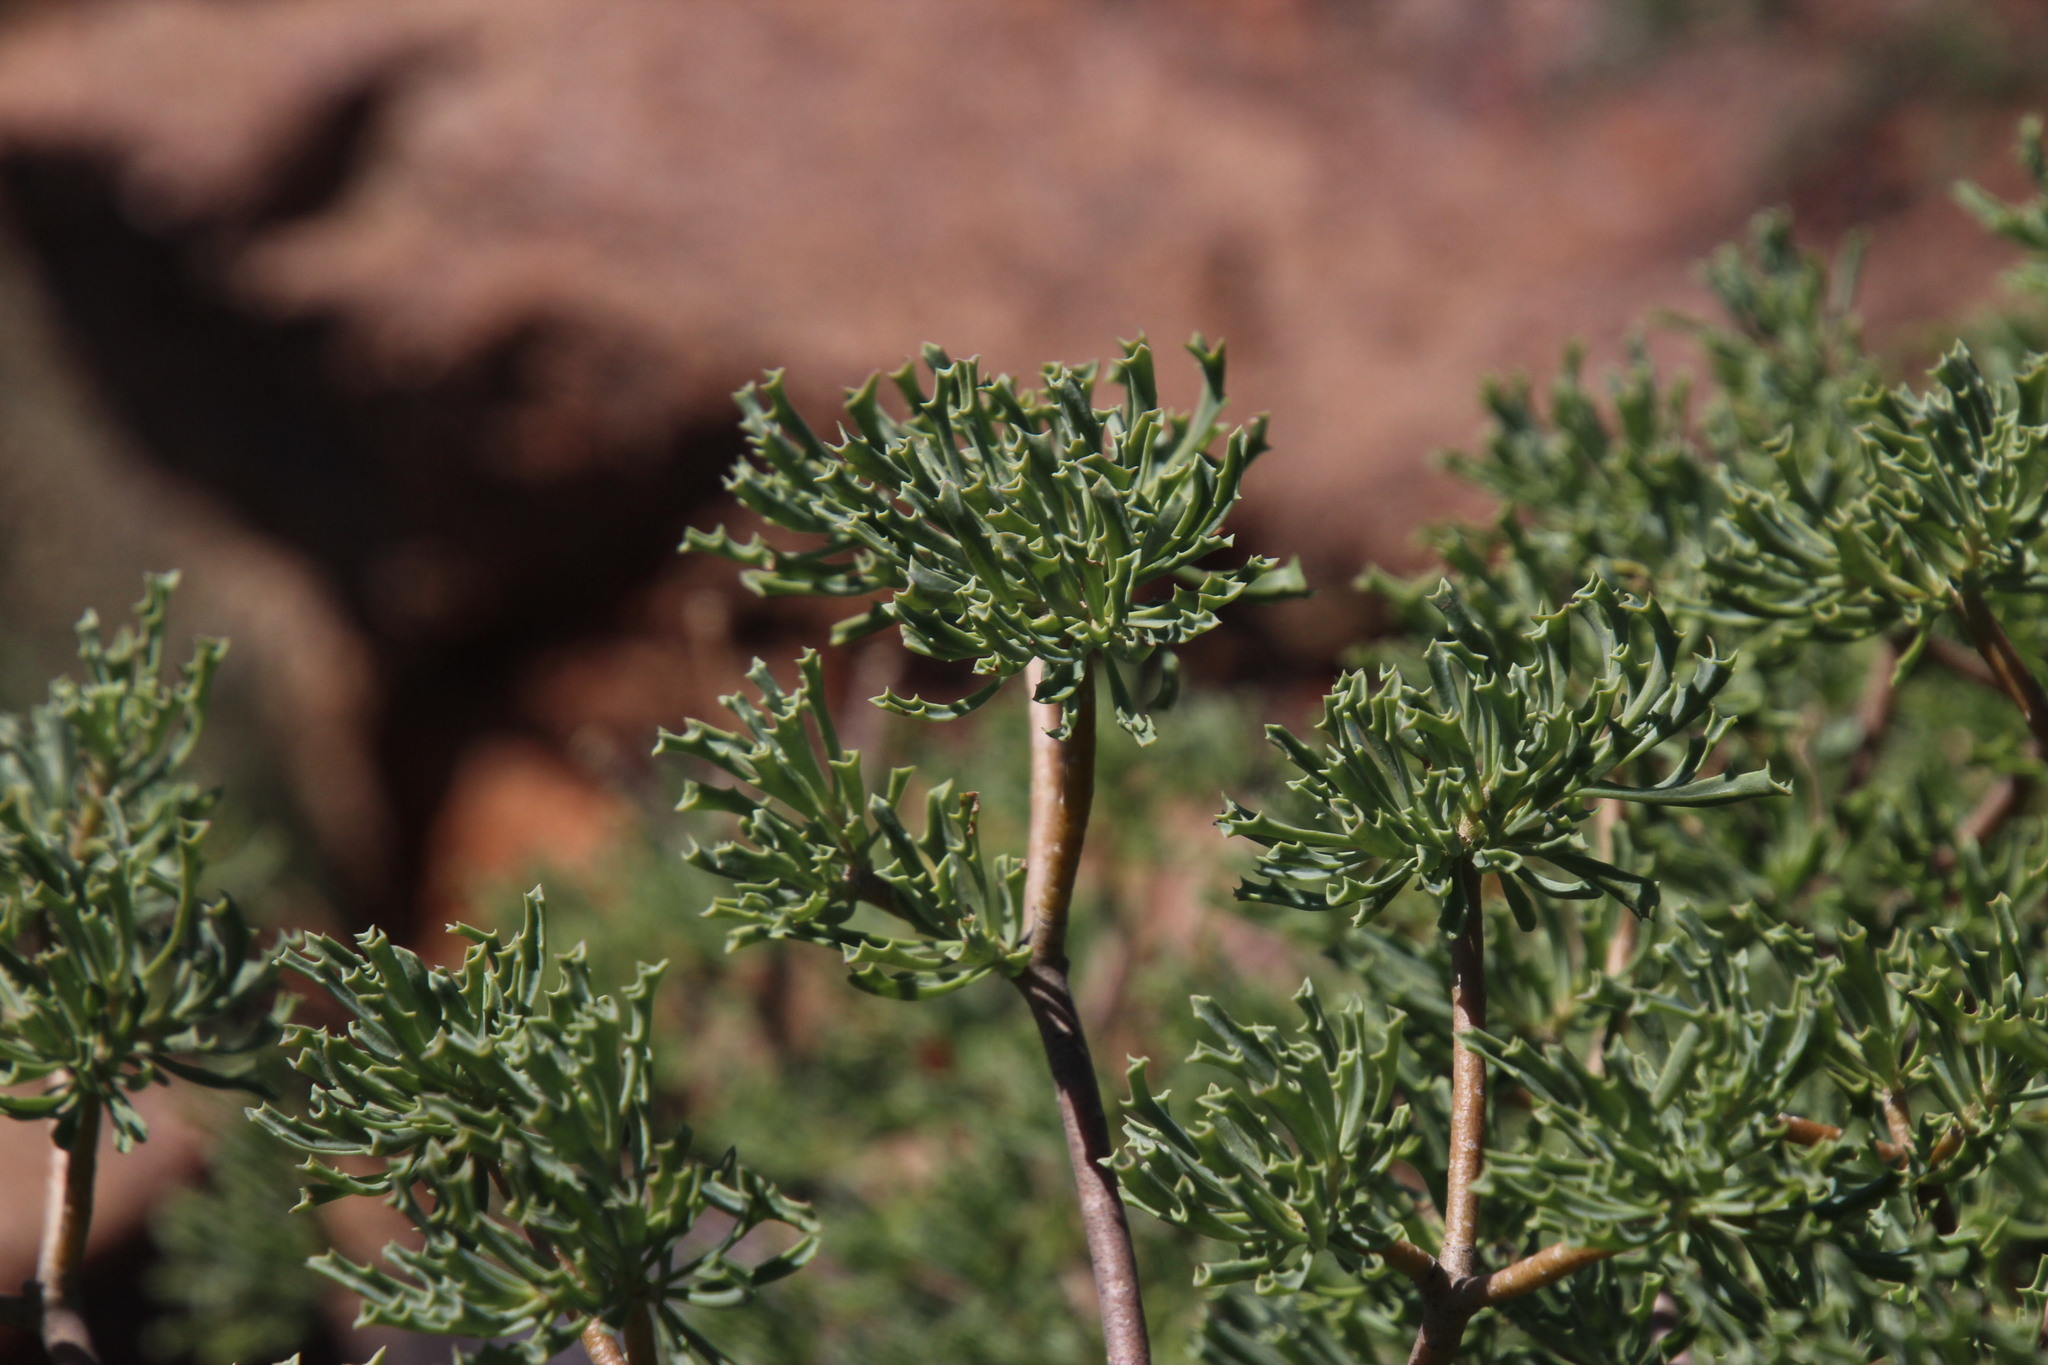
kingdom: Plantae
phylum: Tracheophyta
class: Magnoliopsida
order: Asterales
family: Asteraceae
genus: Othonna
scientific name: Othonna divaricata
